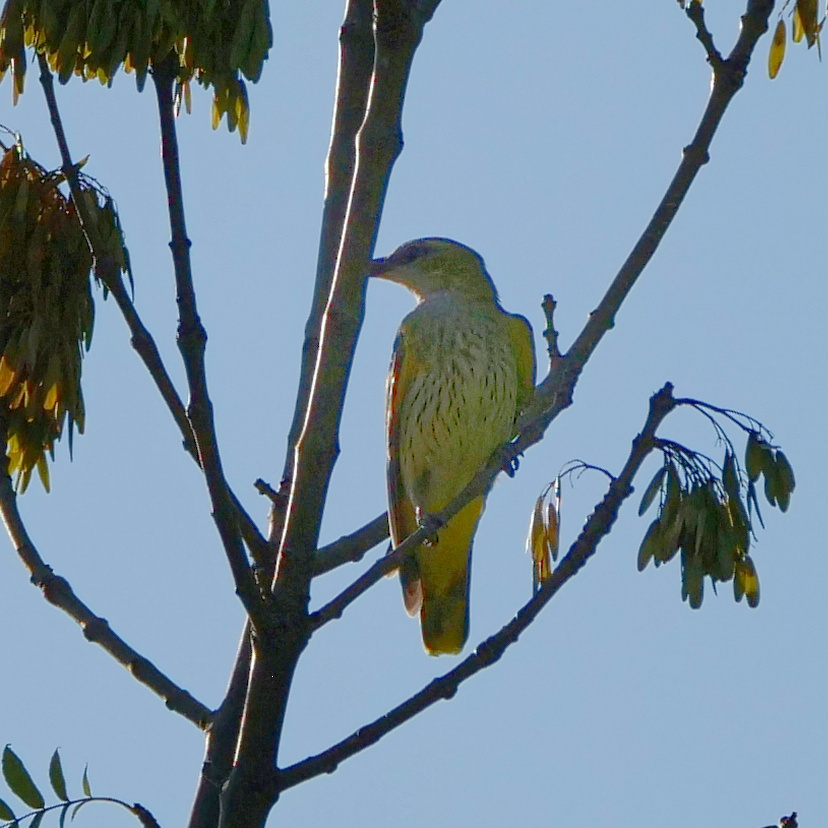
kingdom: Animalia
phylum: Chordata
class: Aves
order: Passeriformes
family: Oriolidae
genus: Oriolus
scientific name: Oriolus oriolus
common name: Eurasian golden oriole
